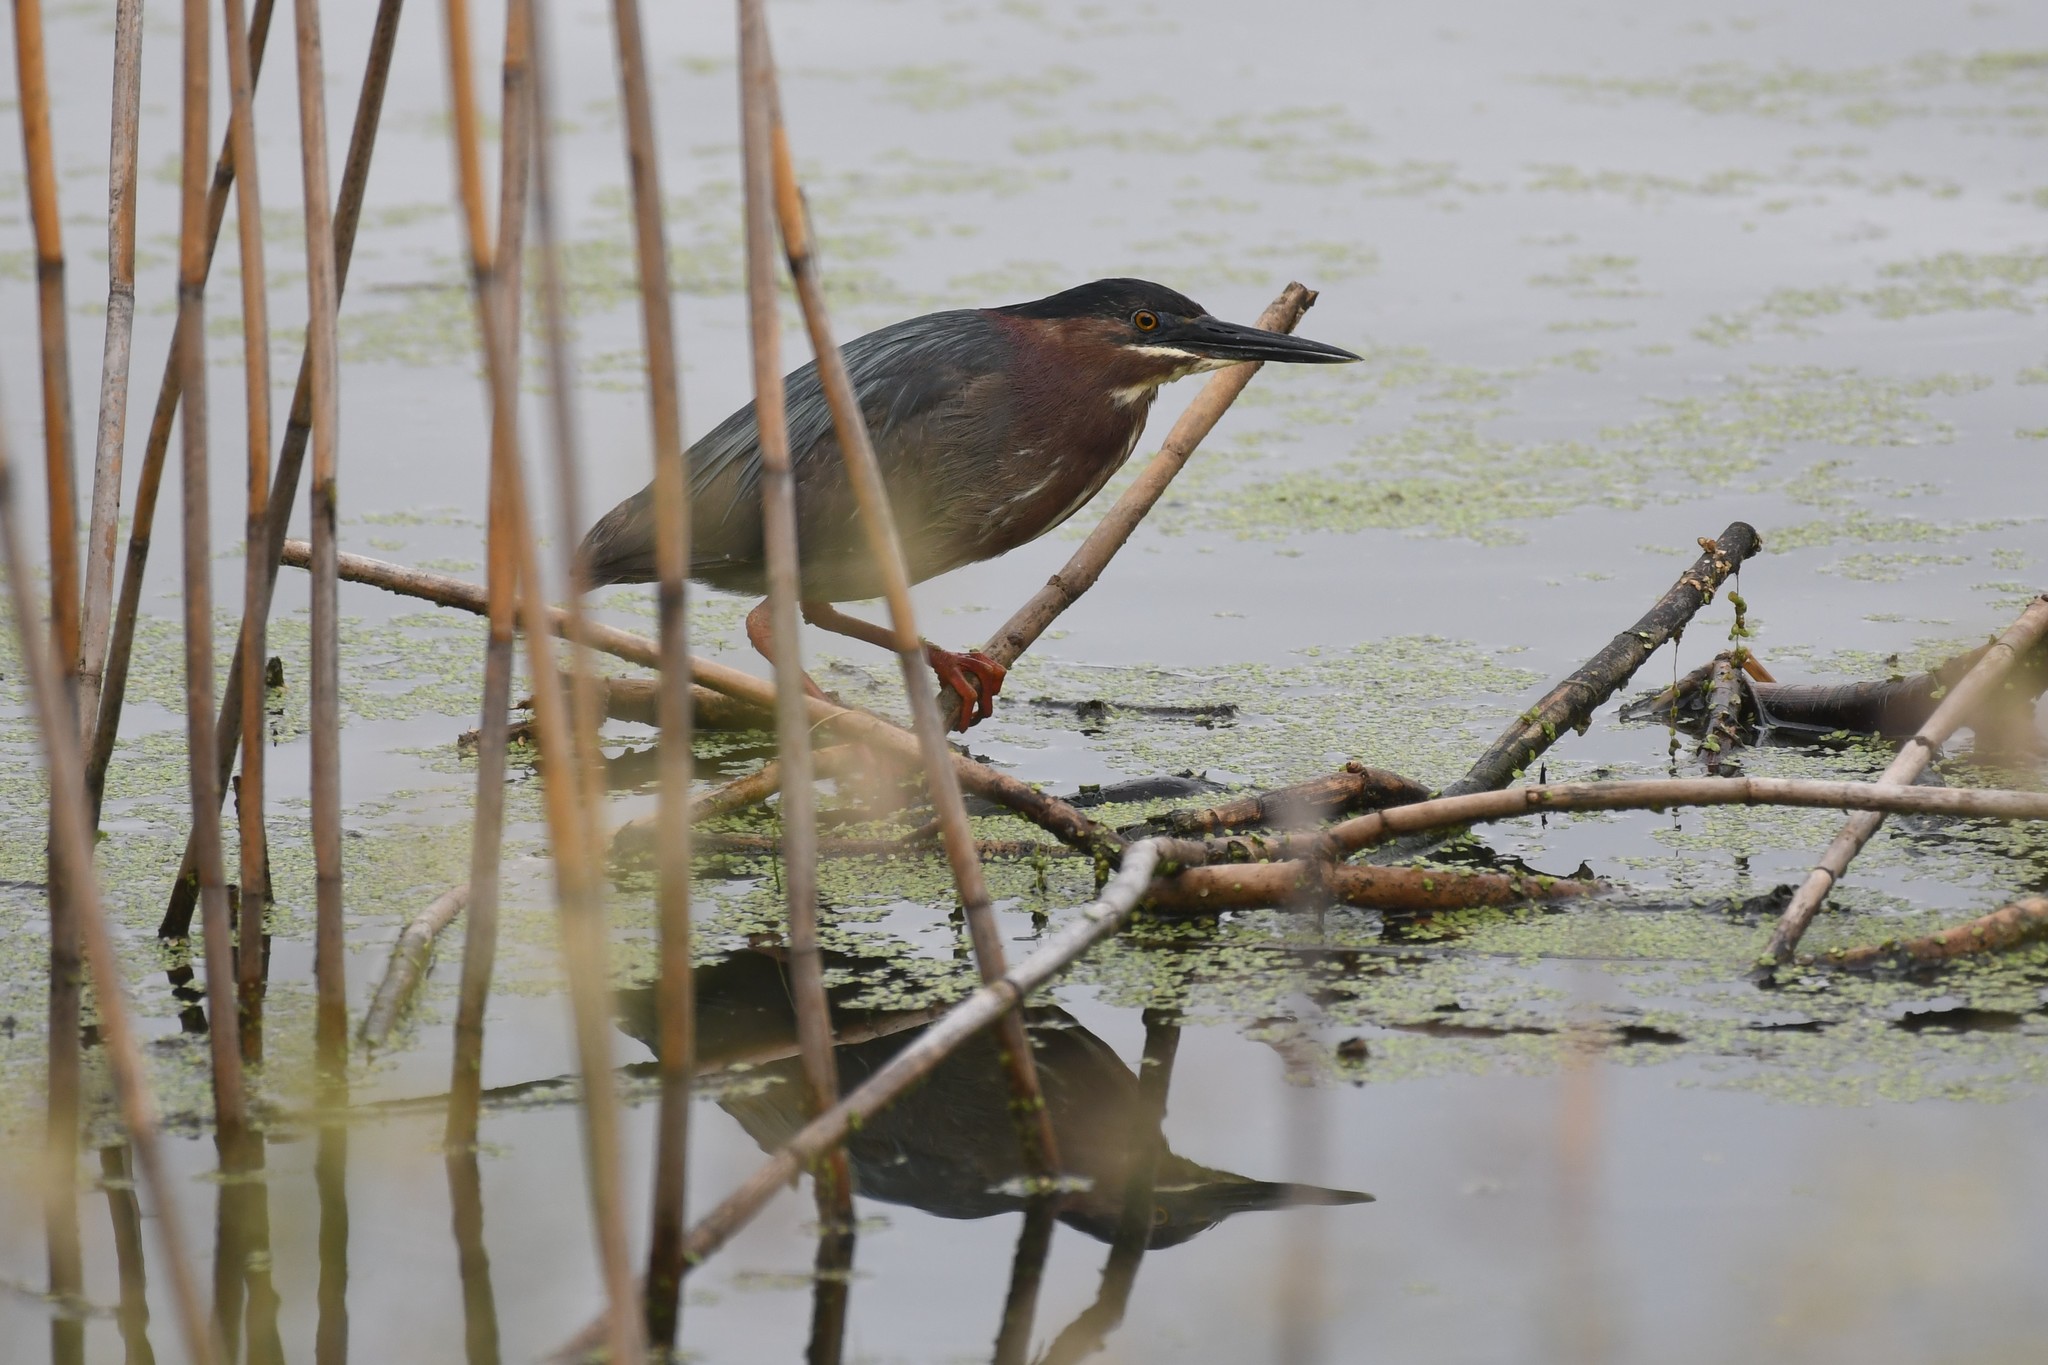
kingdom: Animalia
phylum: Chordata
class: Aves
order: Pelecaniformes
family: Ardeidae
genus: Butorides
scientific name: Butorides virescens
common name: Green heron
